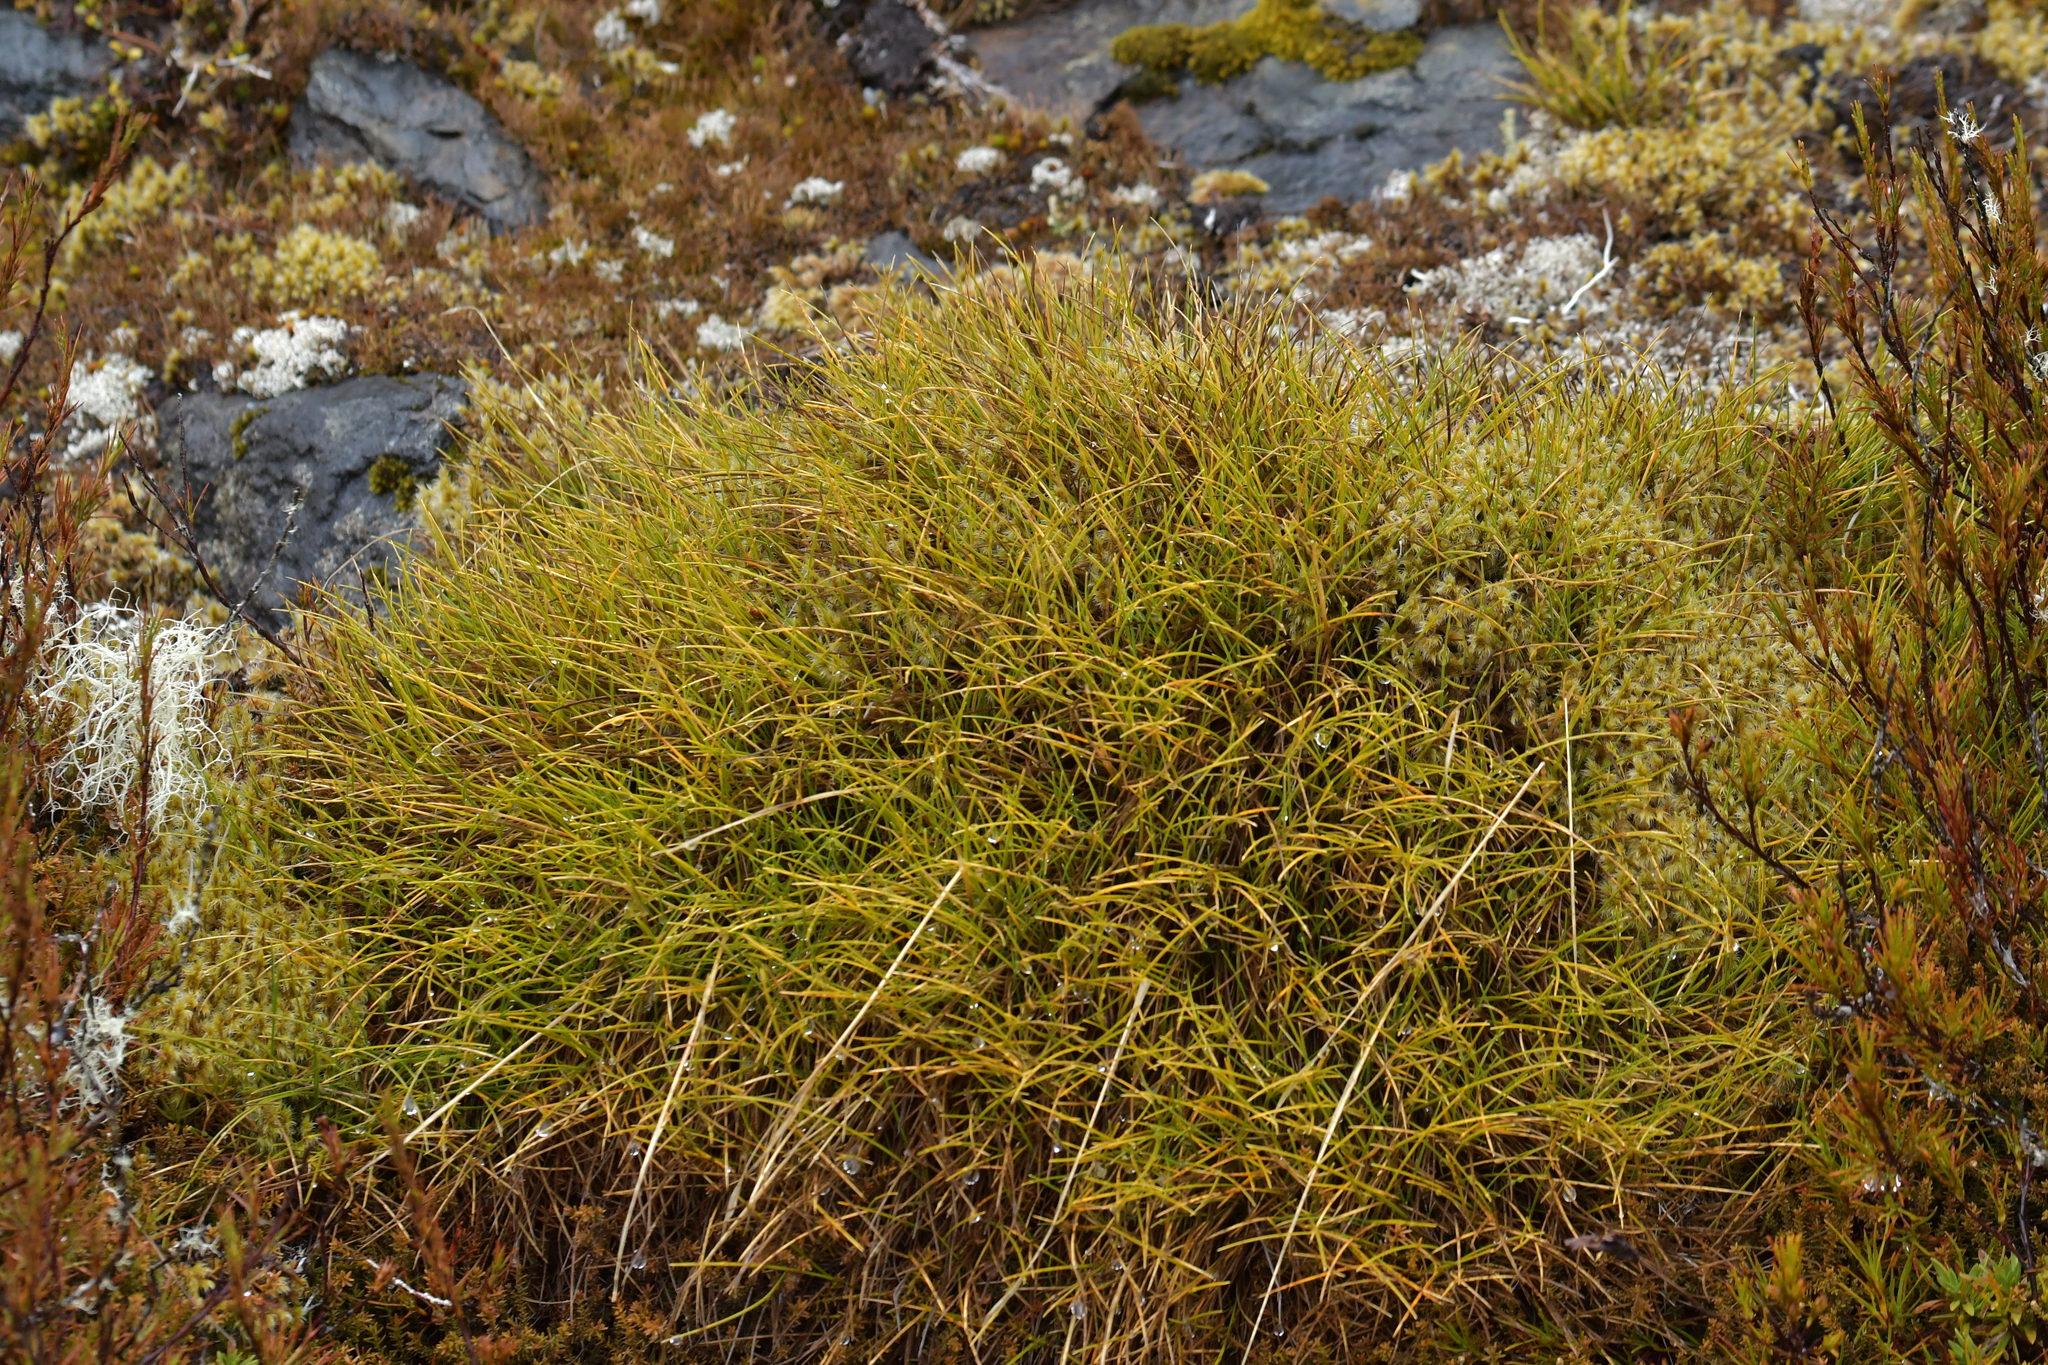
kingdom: Plantae
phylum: Tracheophyta
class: Liliopsida
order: Poales
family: Poaceae
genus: Chionochloa
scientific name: Chionochloa australis
